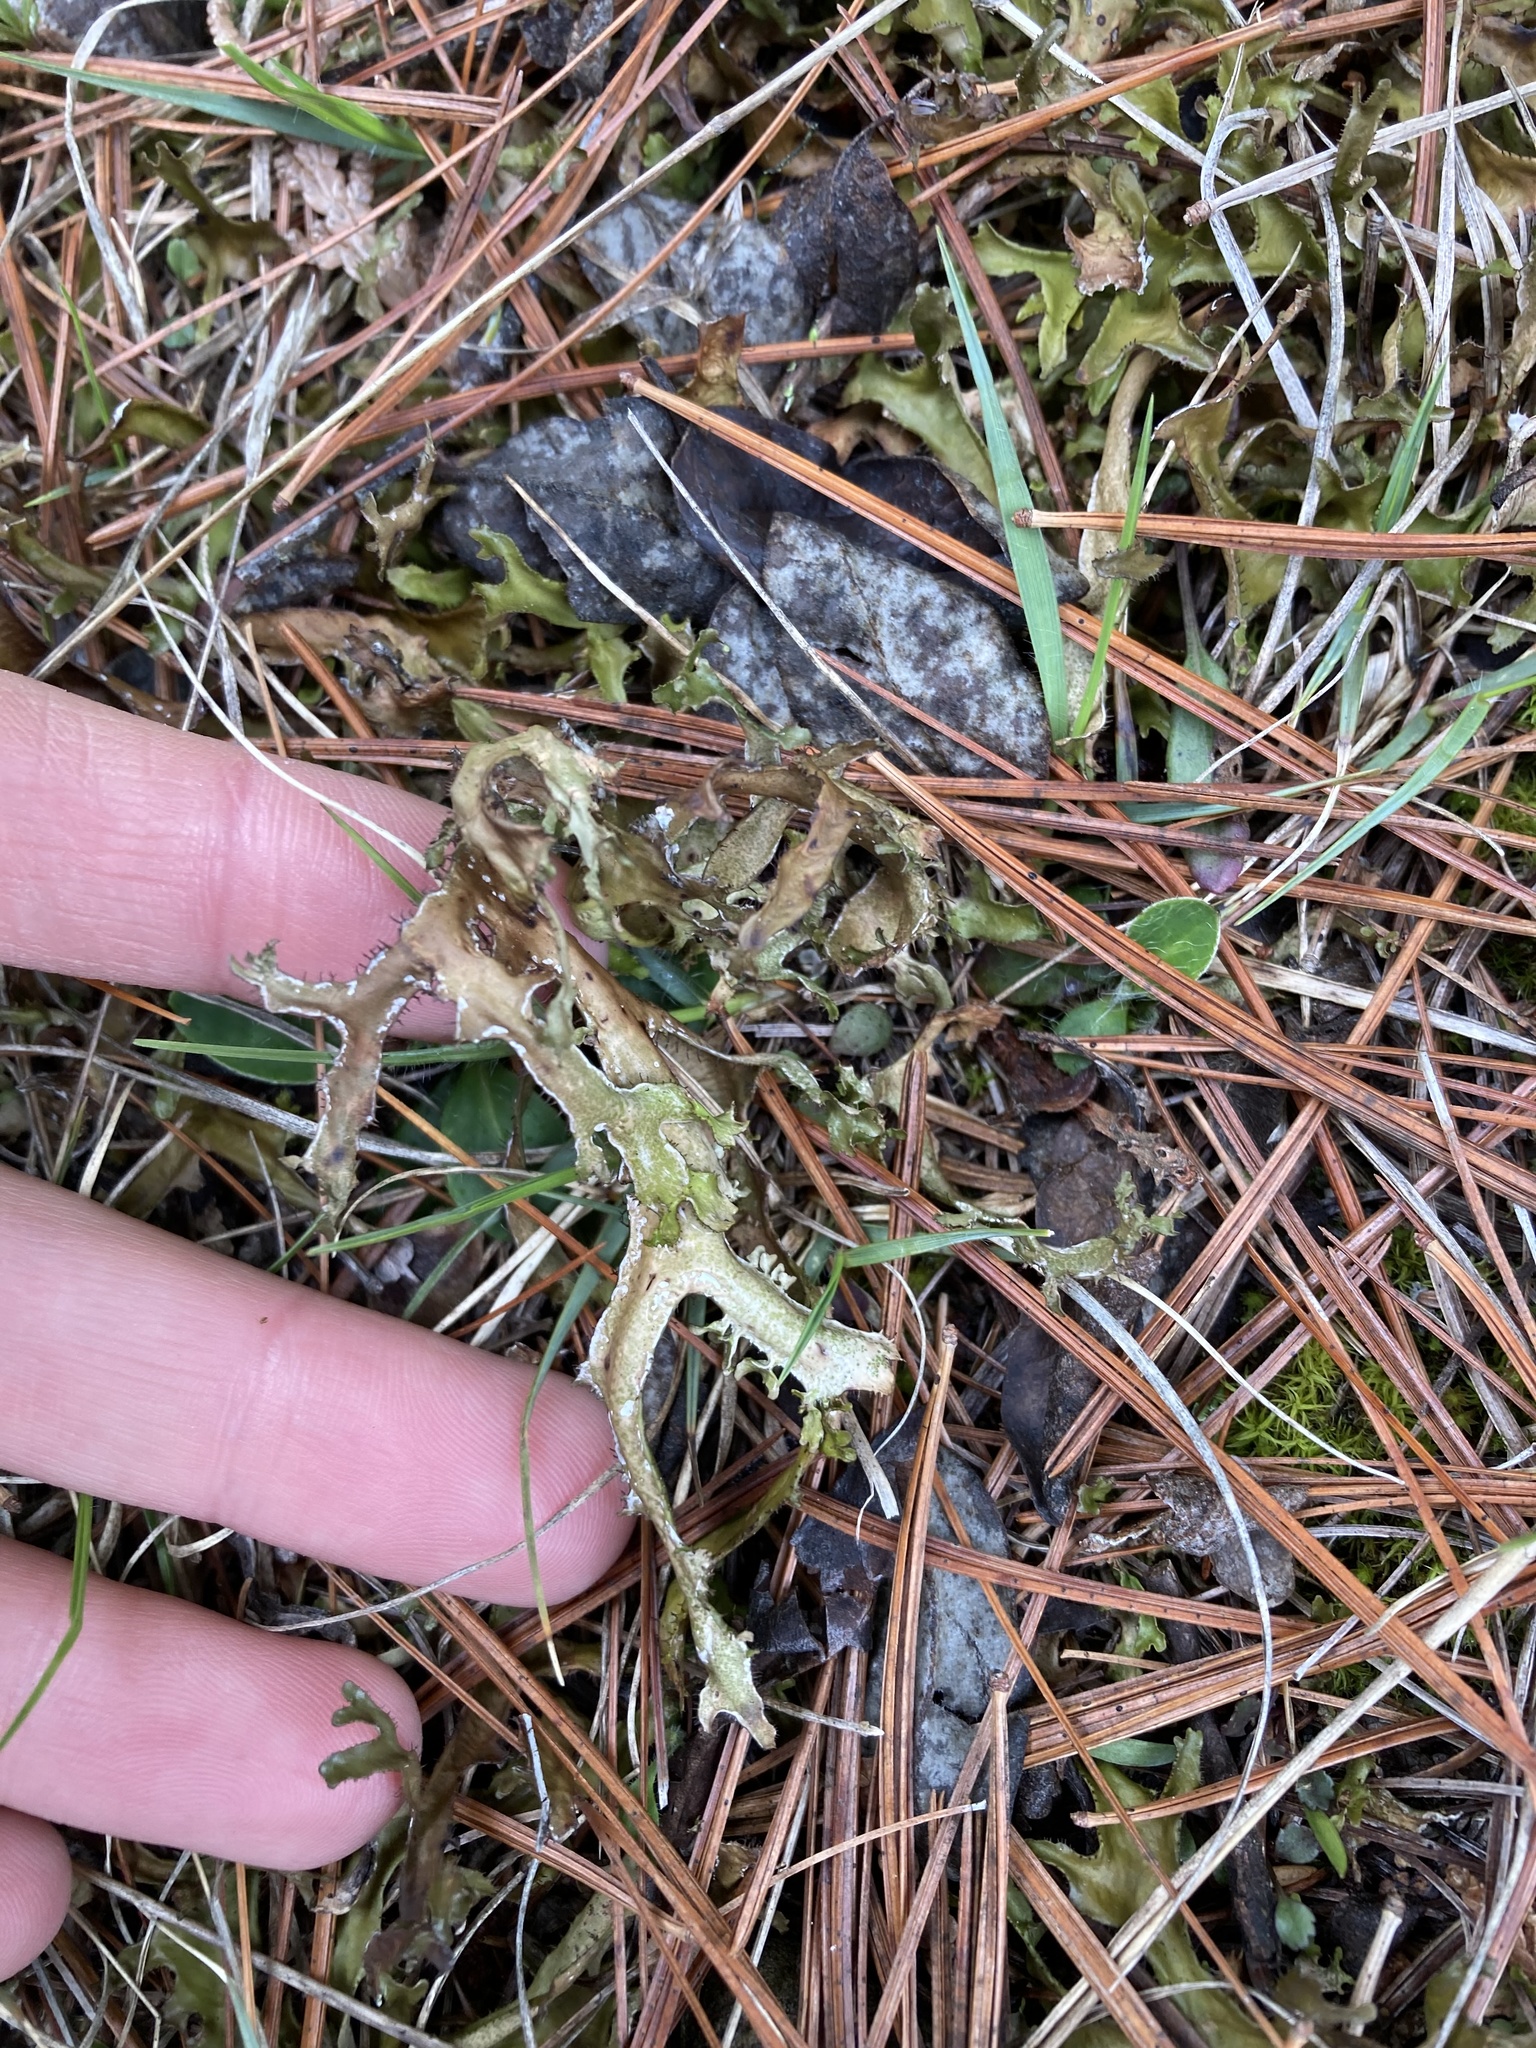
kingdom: Fungi
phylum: Ascomycota
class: Lecanoromycetes
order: Lecanorales
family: Parmeliaceae
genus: Cetraria
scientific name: Cetraria arenaria
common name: Sand-loving iceland lichen
